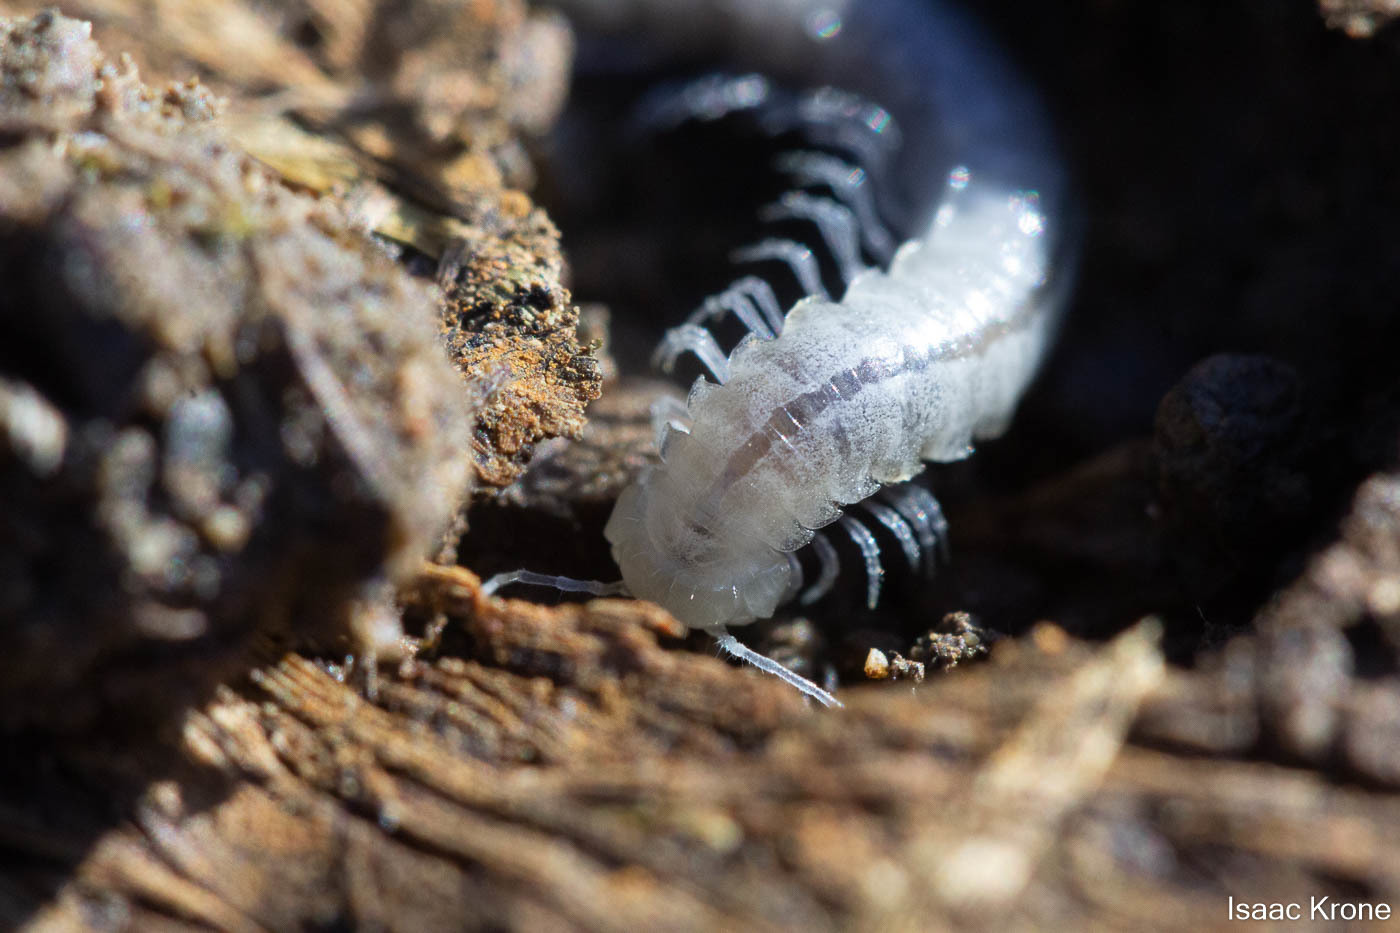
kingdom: Animalia
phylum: Arthropoda
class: Diplopoda
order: Polydesmida
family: Xystodesmidae
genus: Xystocheir
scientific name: Xystocheir dissecta
